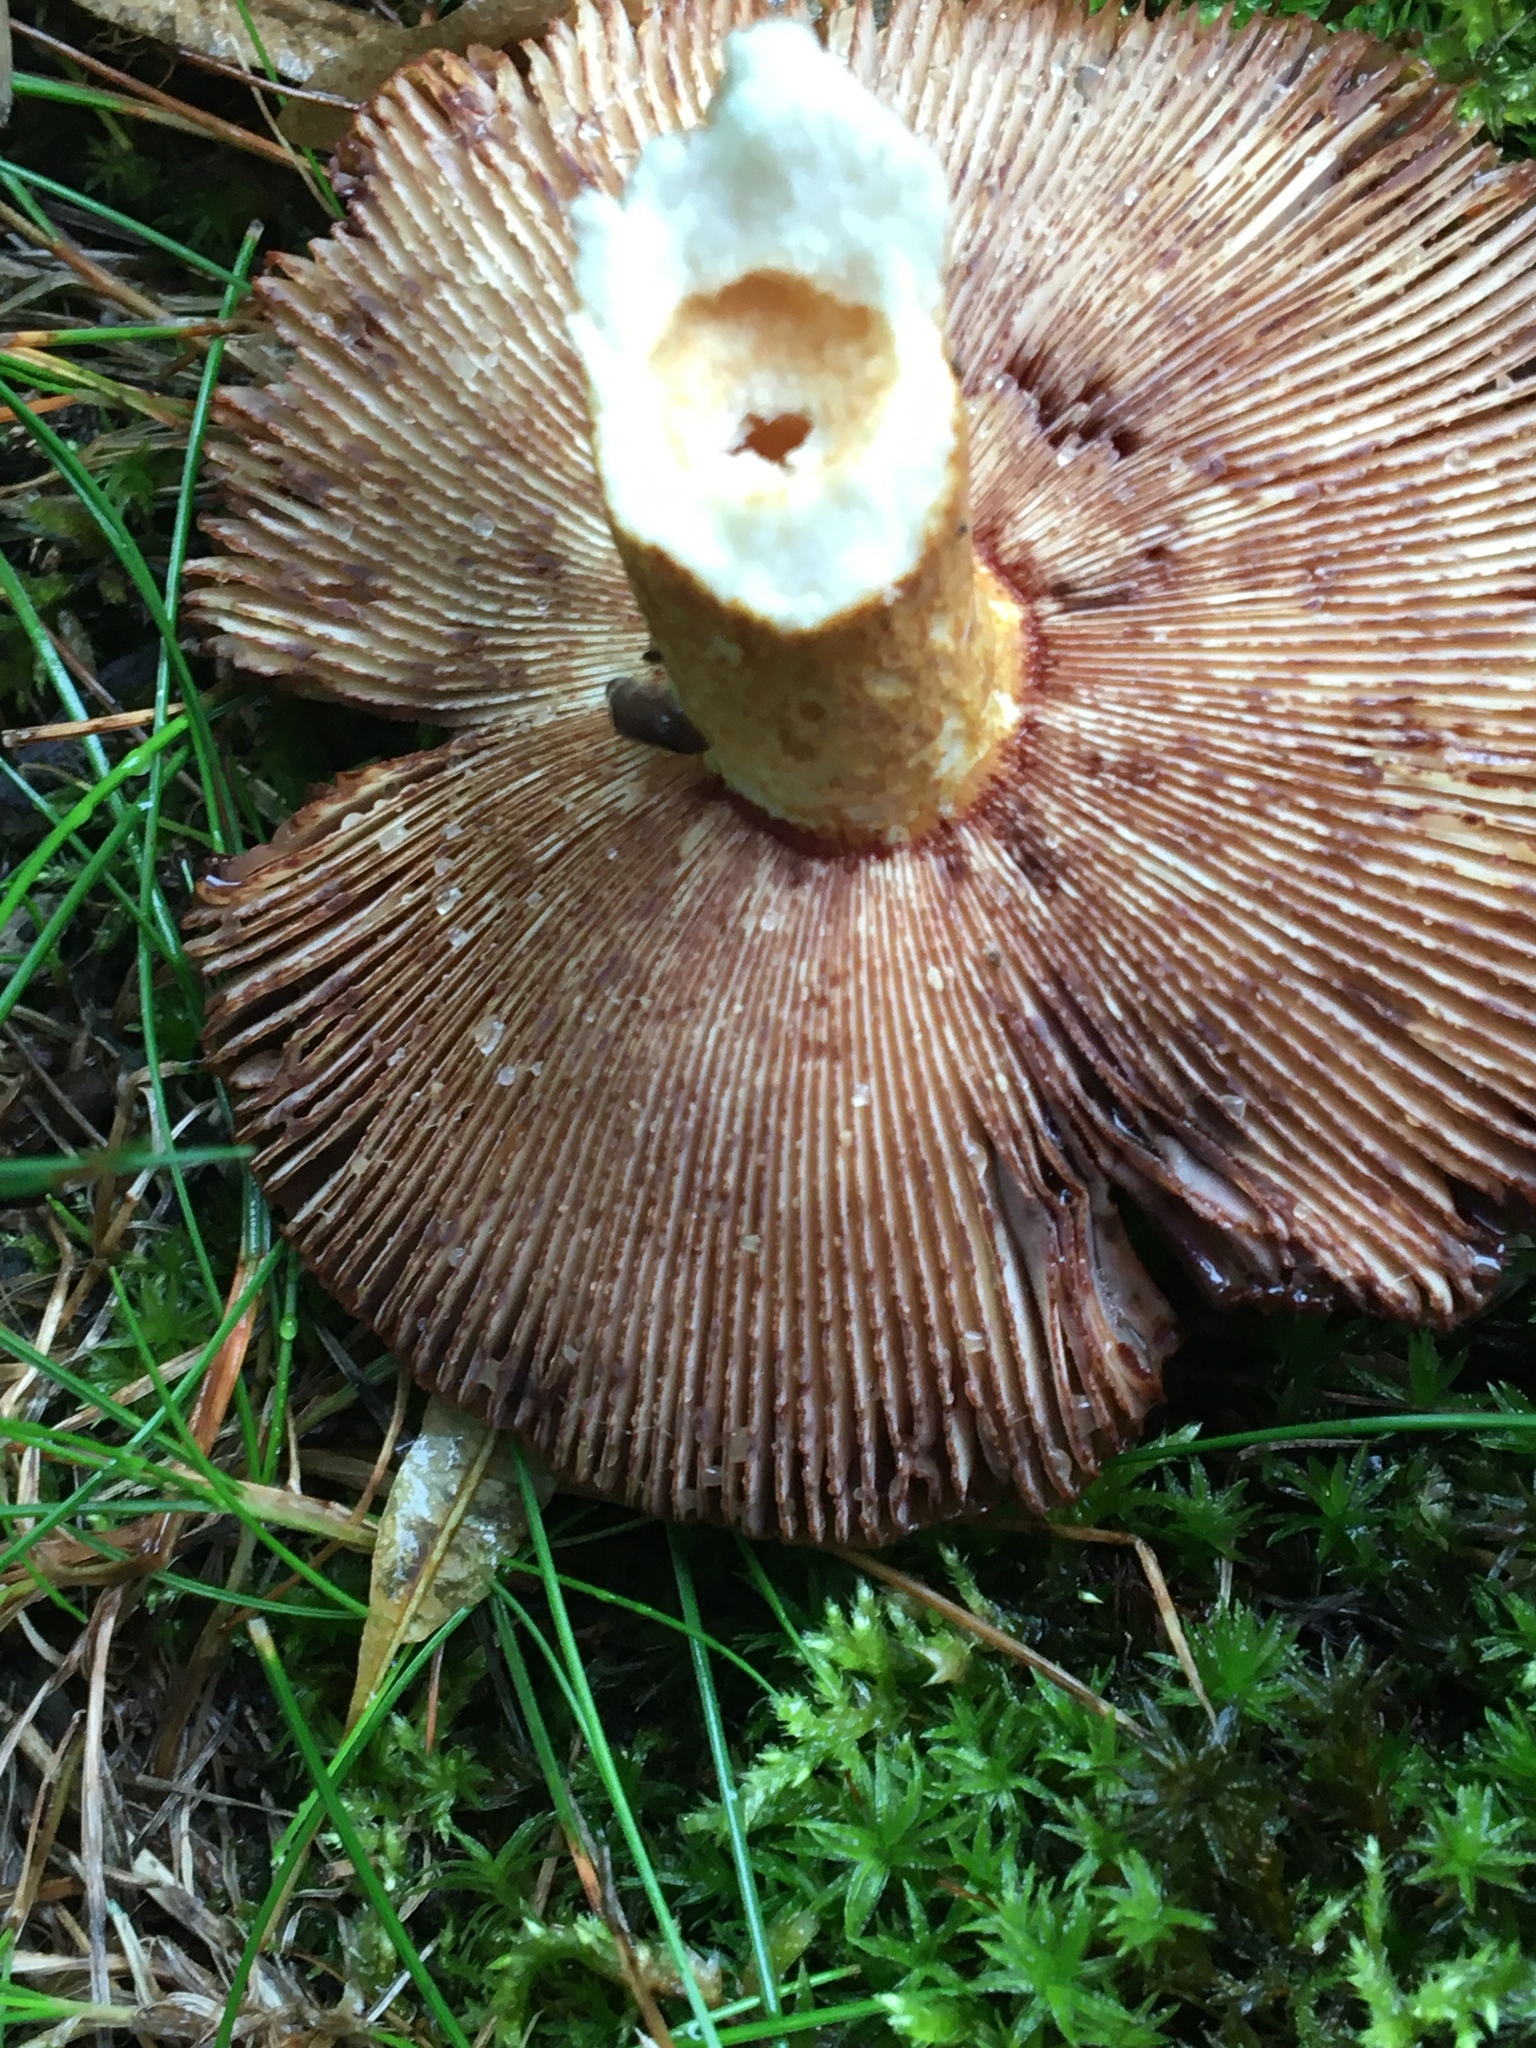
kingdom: Fungi
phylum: Basidiomycota
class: Agaricomycetes
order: Russulales
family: Russulaceae
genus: Russula
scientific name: Russula mutabilis
